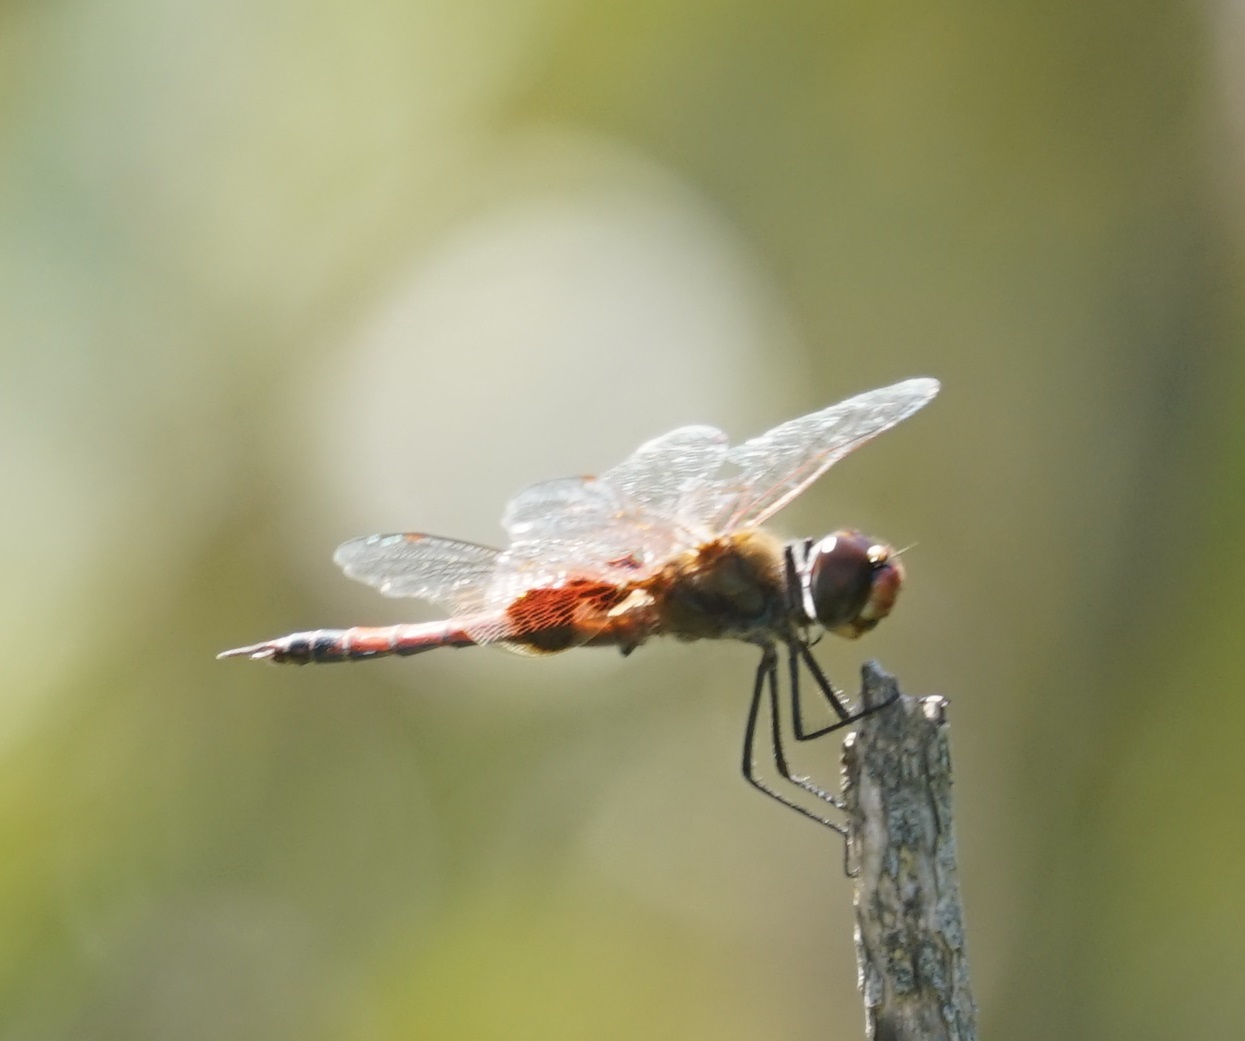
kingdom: Animalia
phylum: Arthropoda
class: Insecta
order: Odonata
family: Libellulidae
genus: Tramea
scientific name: Tramea loewii
